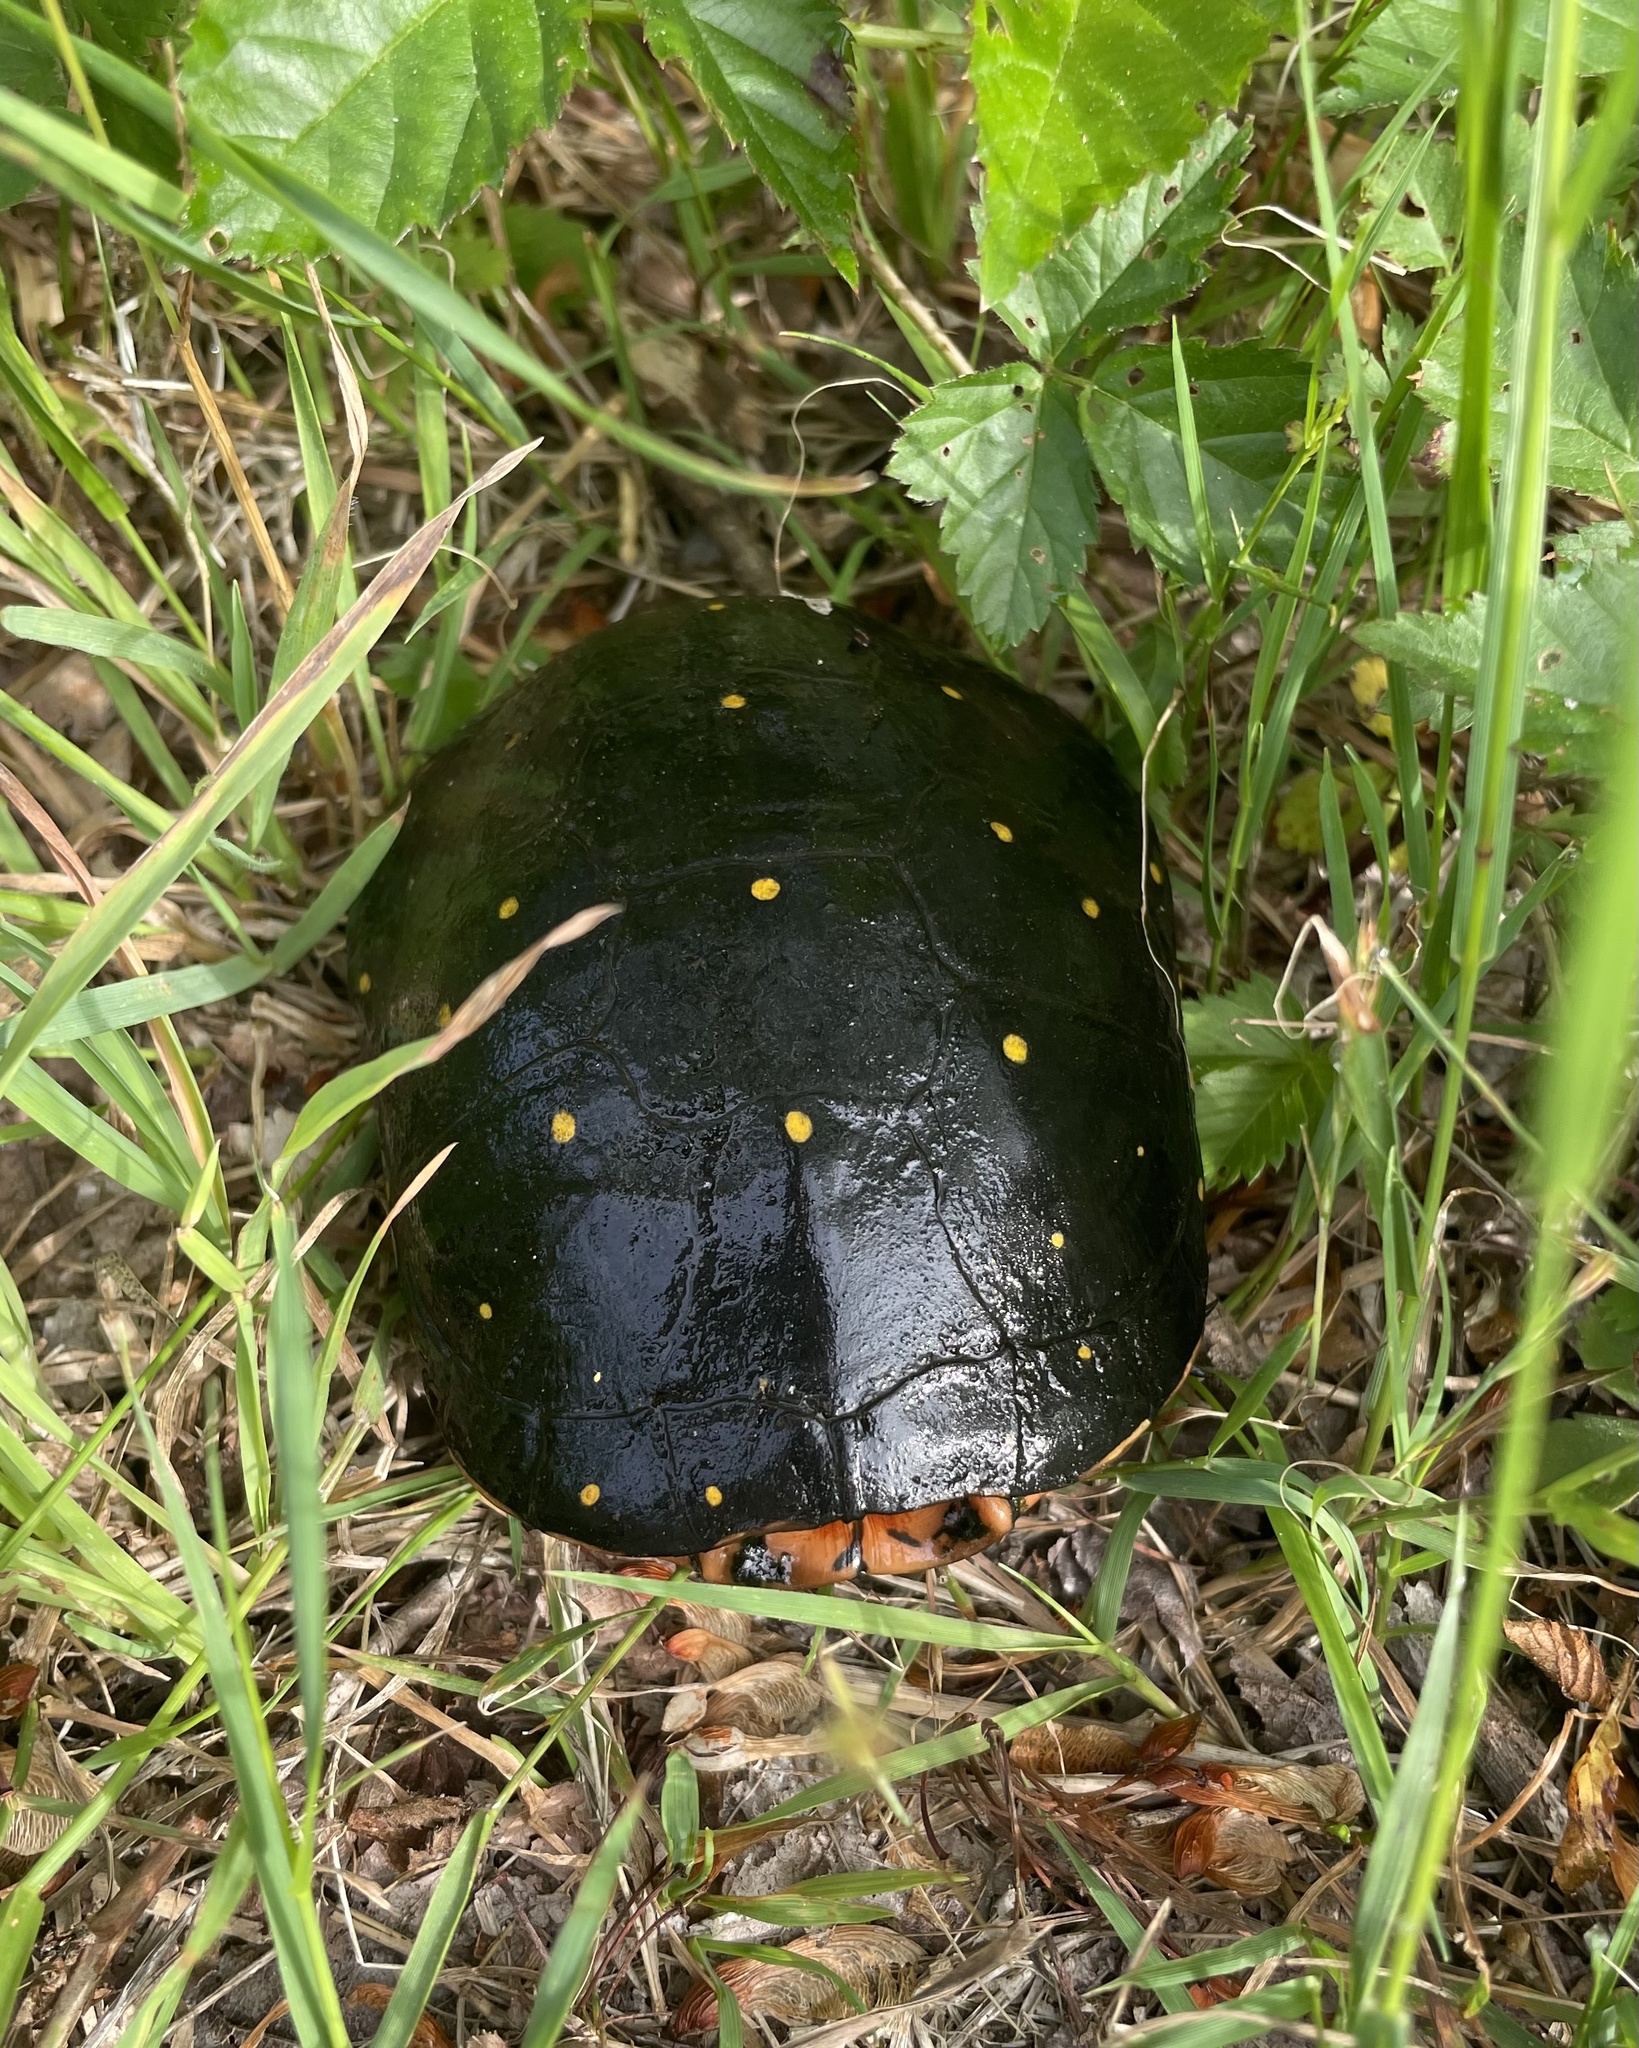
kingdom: Animalia
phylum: Chordata
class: Testudines
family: Emydidae
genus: Clemmys
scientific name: Clemmys guttata
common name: Spotted turtle
